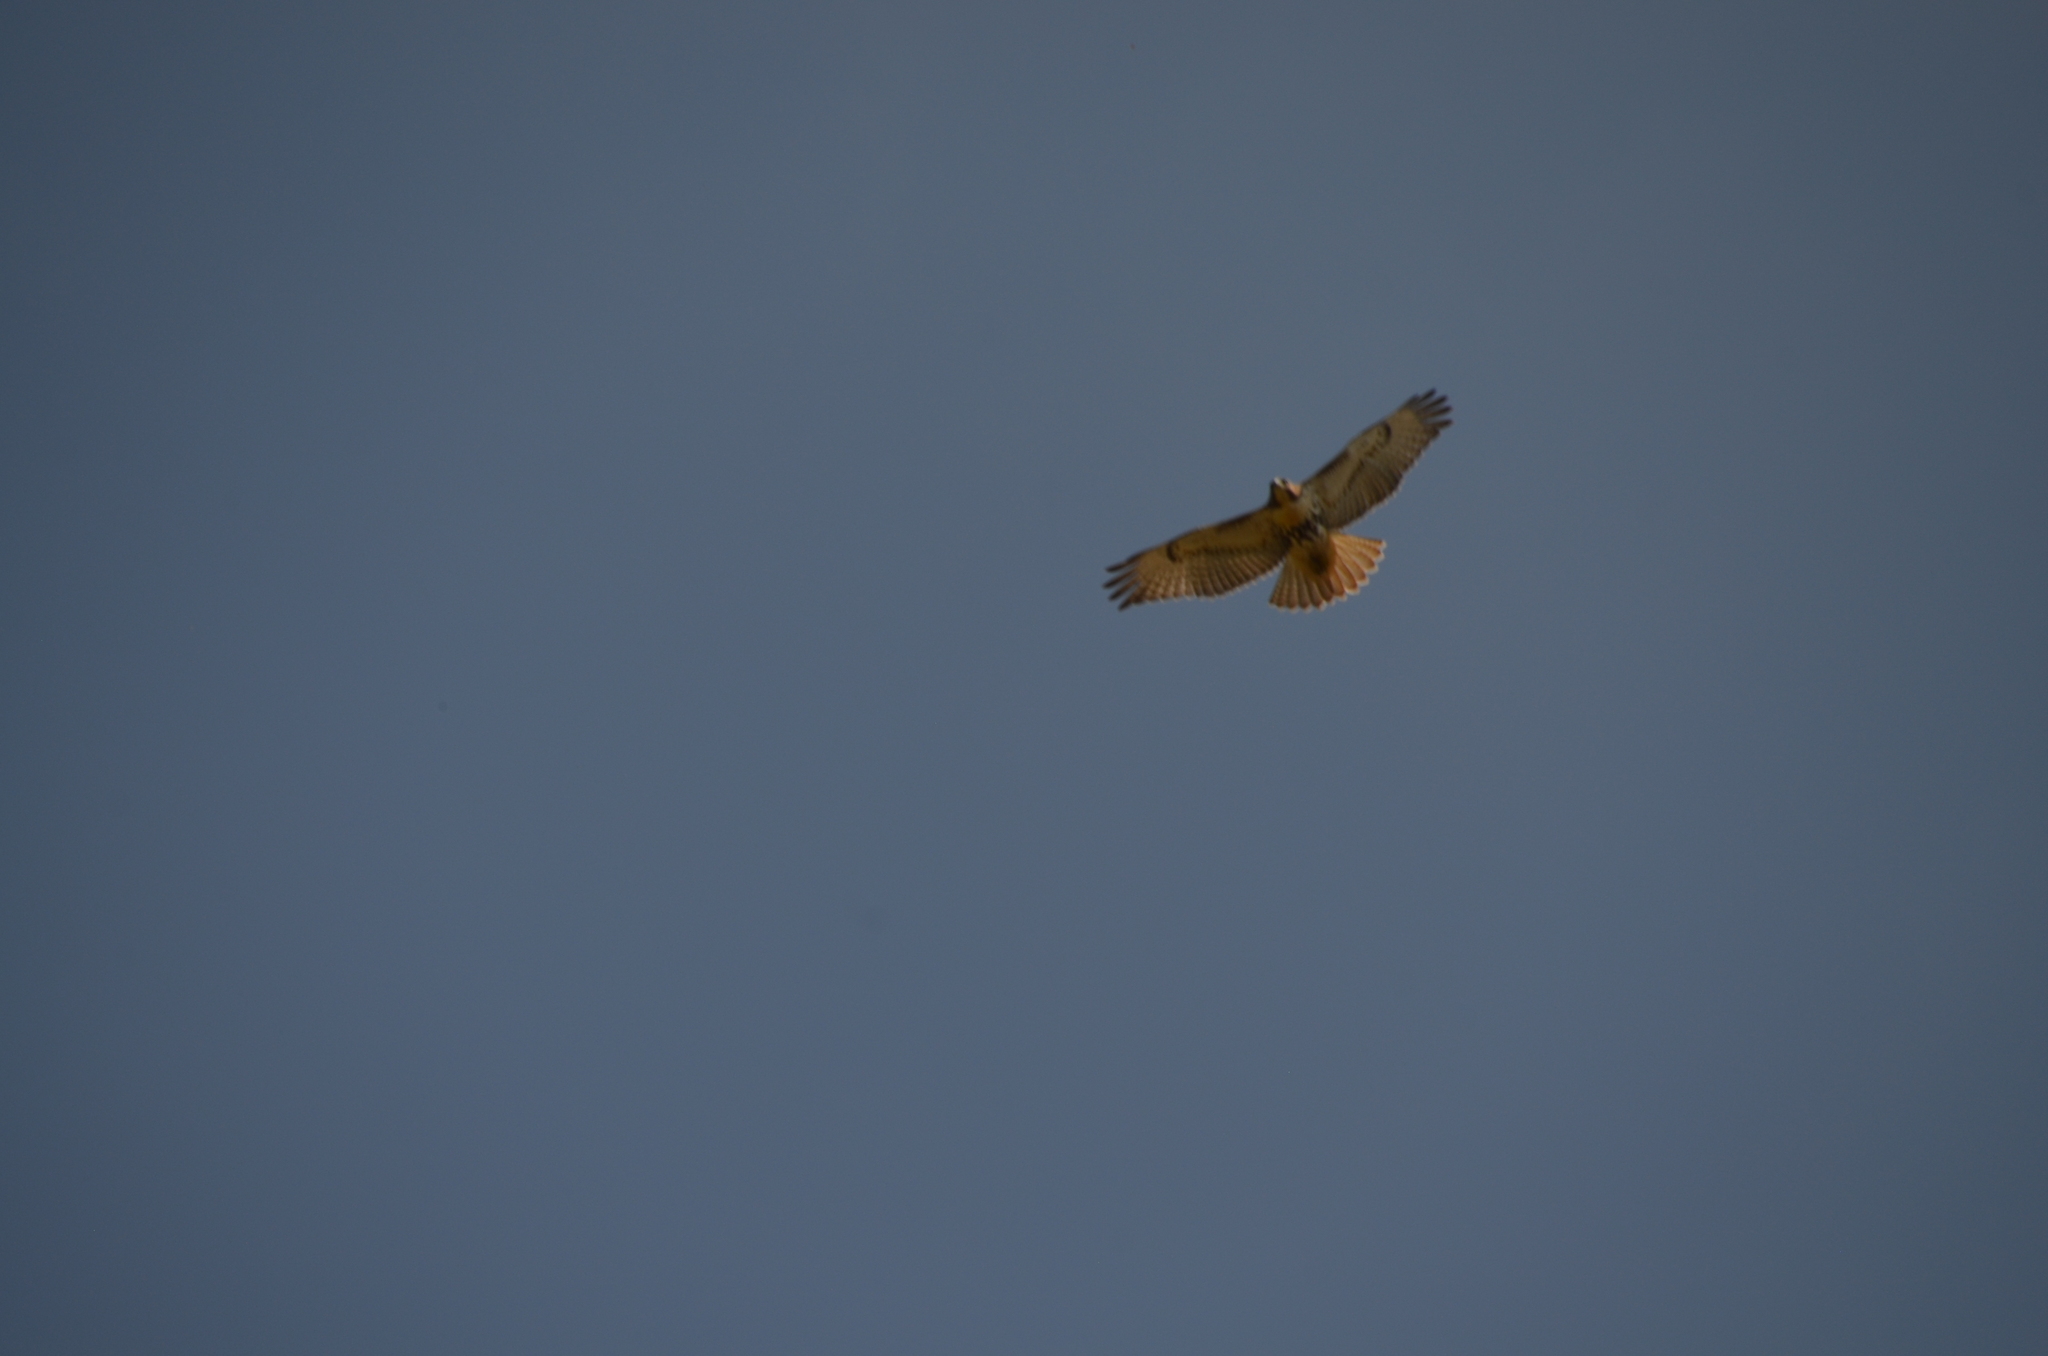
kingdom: Animalia
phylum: Chordata
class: Aves
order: Accipitriformes
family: Accipitridae
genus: Buteo
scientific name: Buteo jamaicensis
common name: Red-tailed hawk
